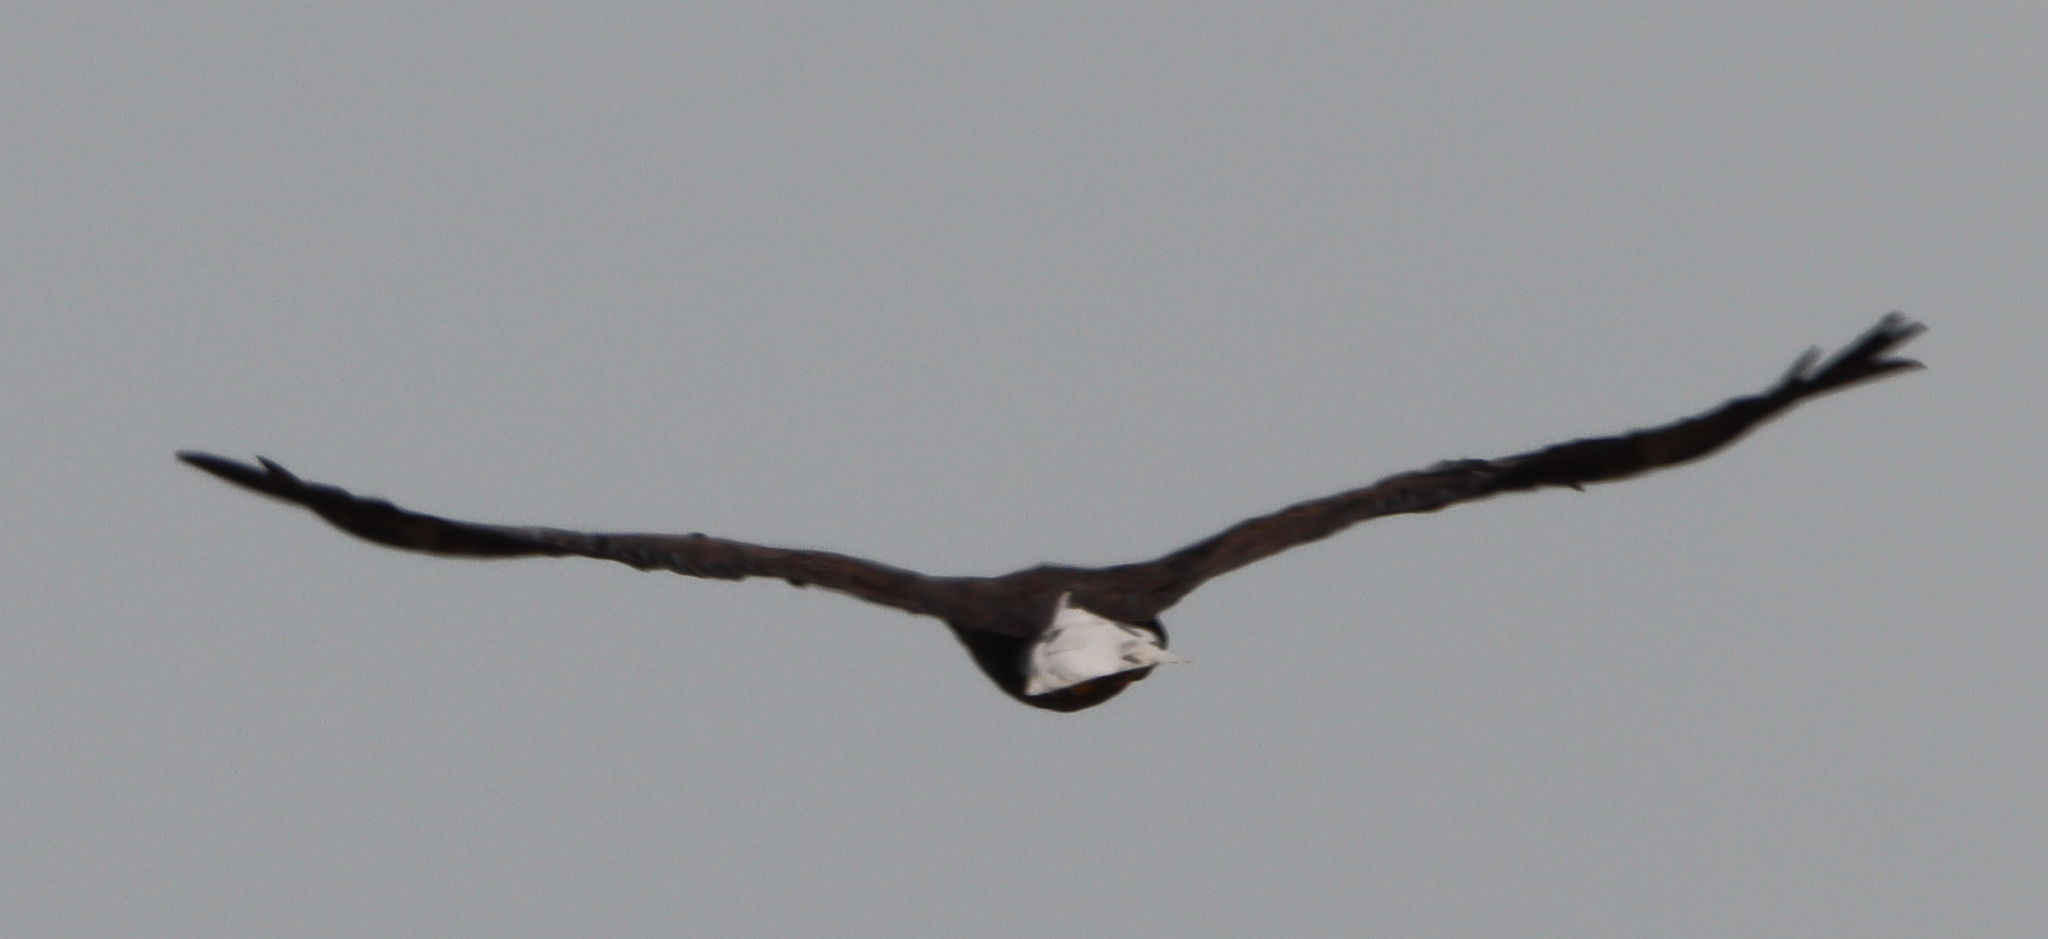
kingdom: Animalia
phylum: Chordata
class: Aves
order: Accipitriformes
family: Accipitridae
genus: Haliaeetus
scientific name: Haliaeetus leucocephalus
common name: Bald eagle
